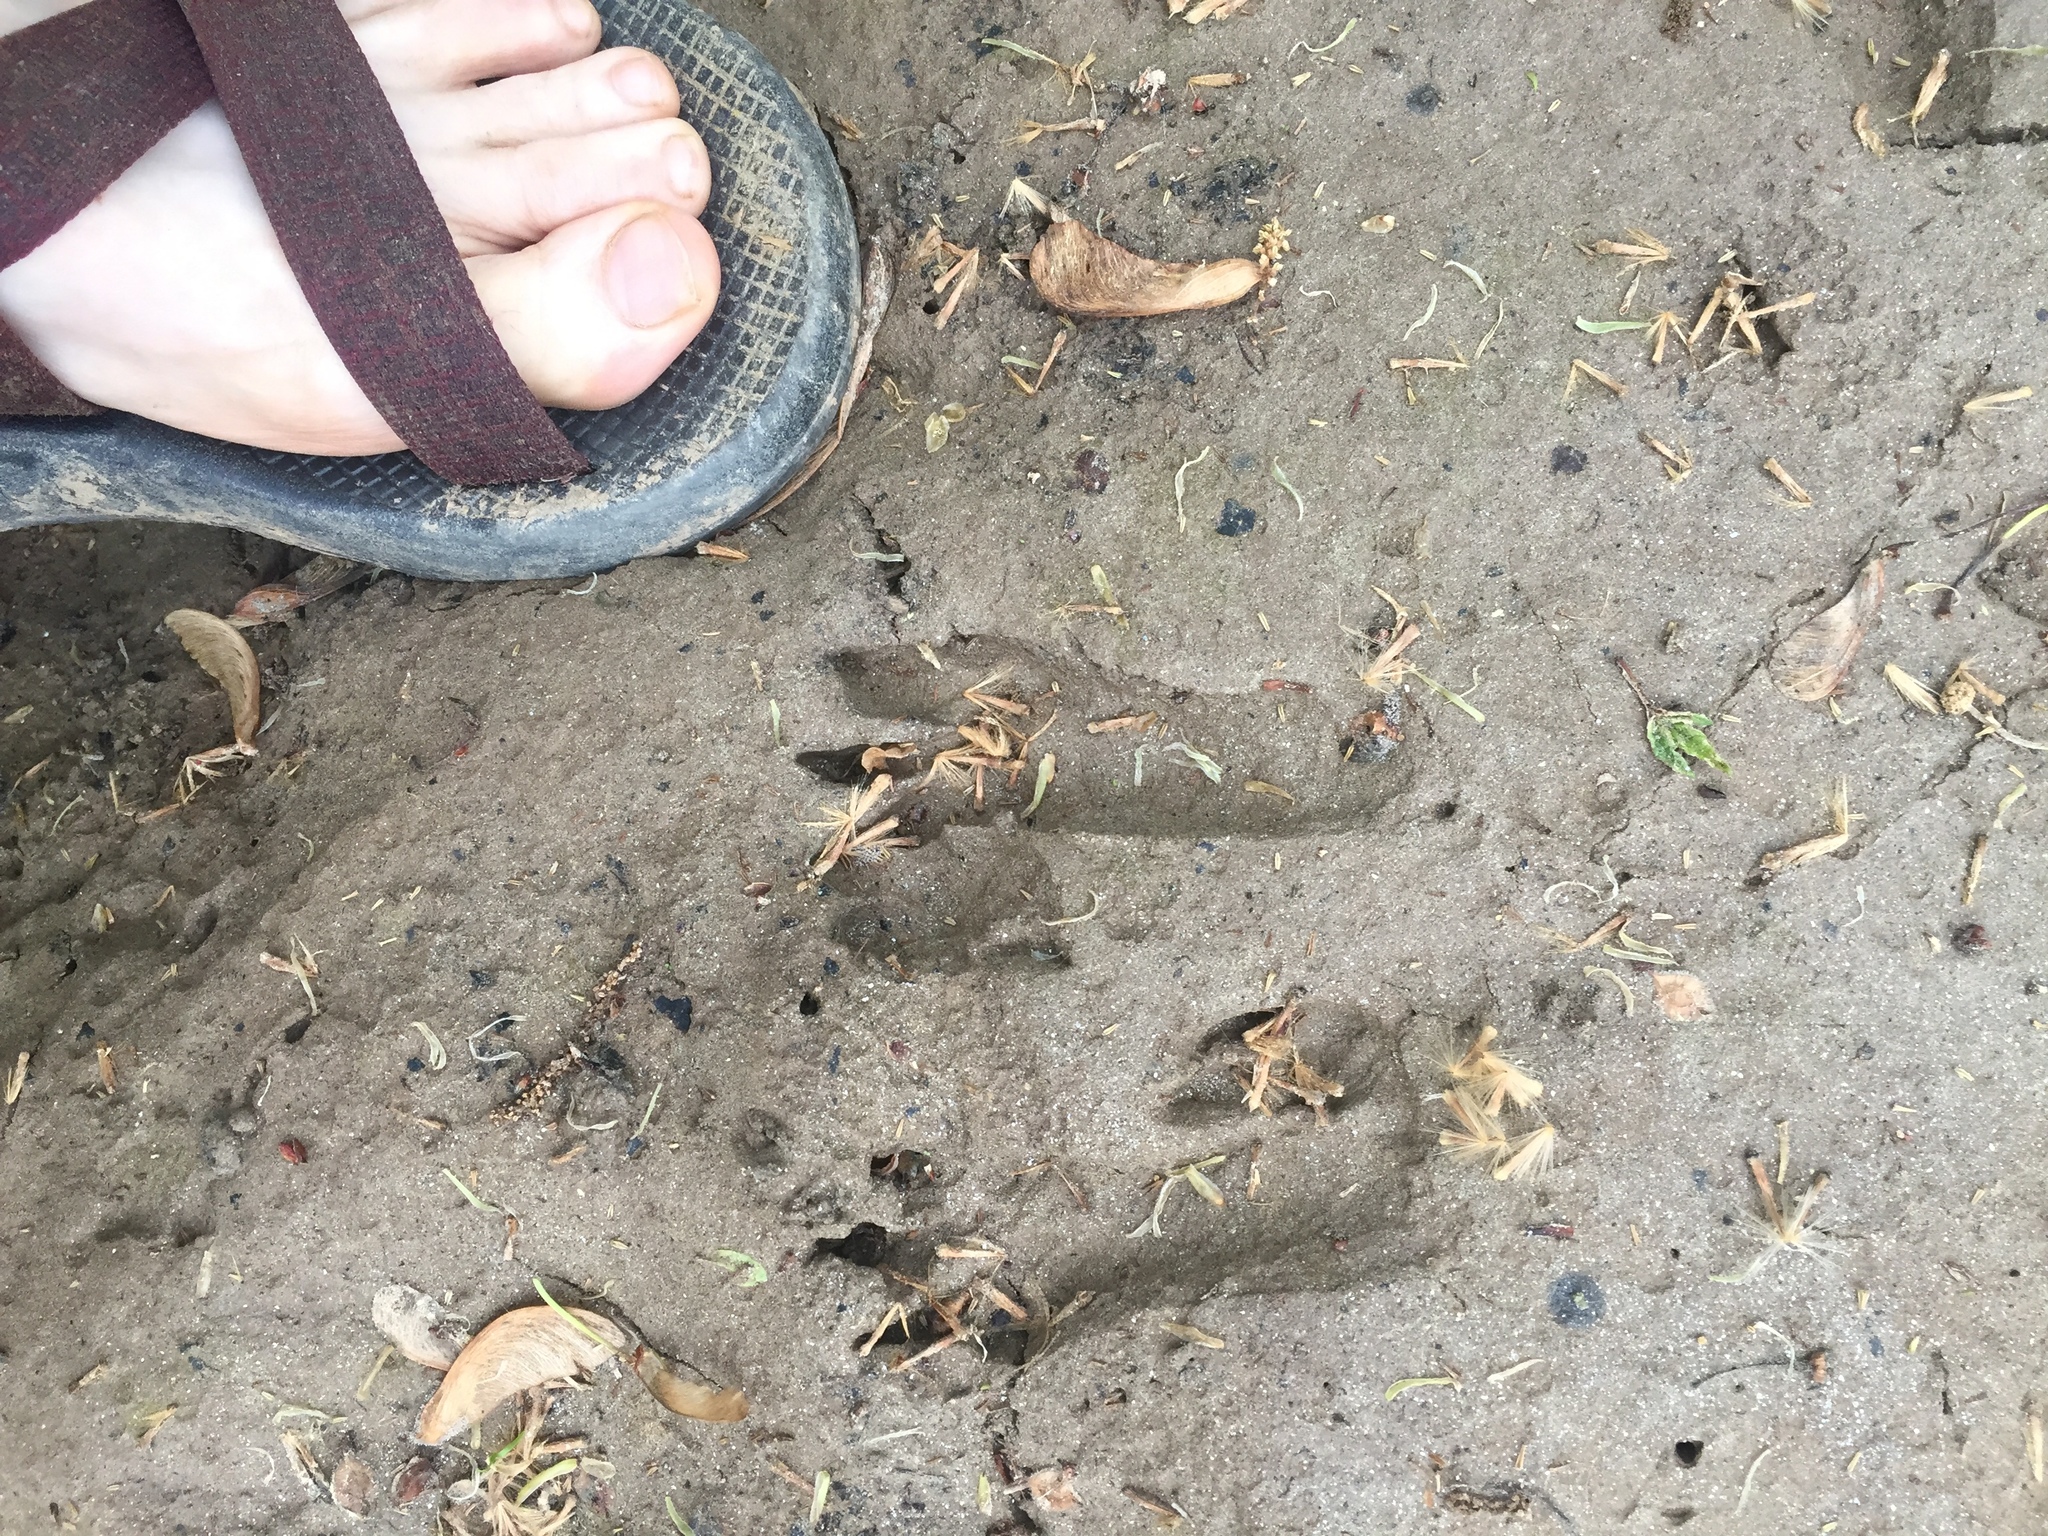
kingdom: Animalia
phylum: Chordata
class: Mammalia
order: Cingulata
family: Dasypodidae
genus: Dasypus
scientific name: Dasypus novemcinctus
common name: Nine-banded armadillo
